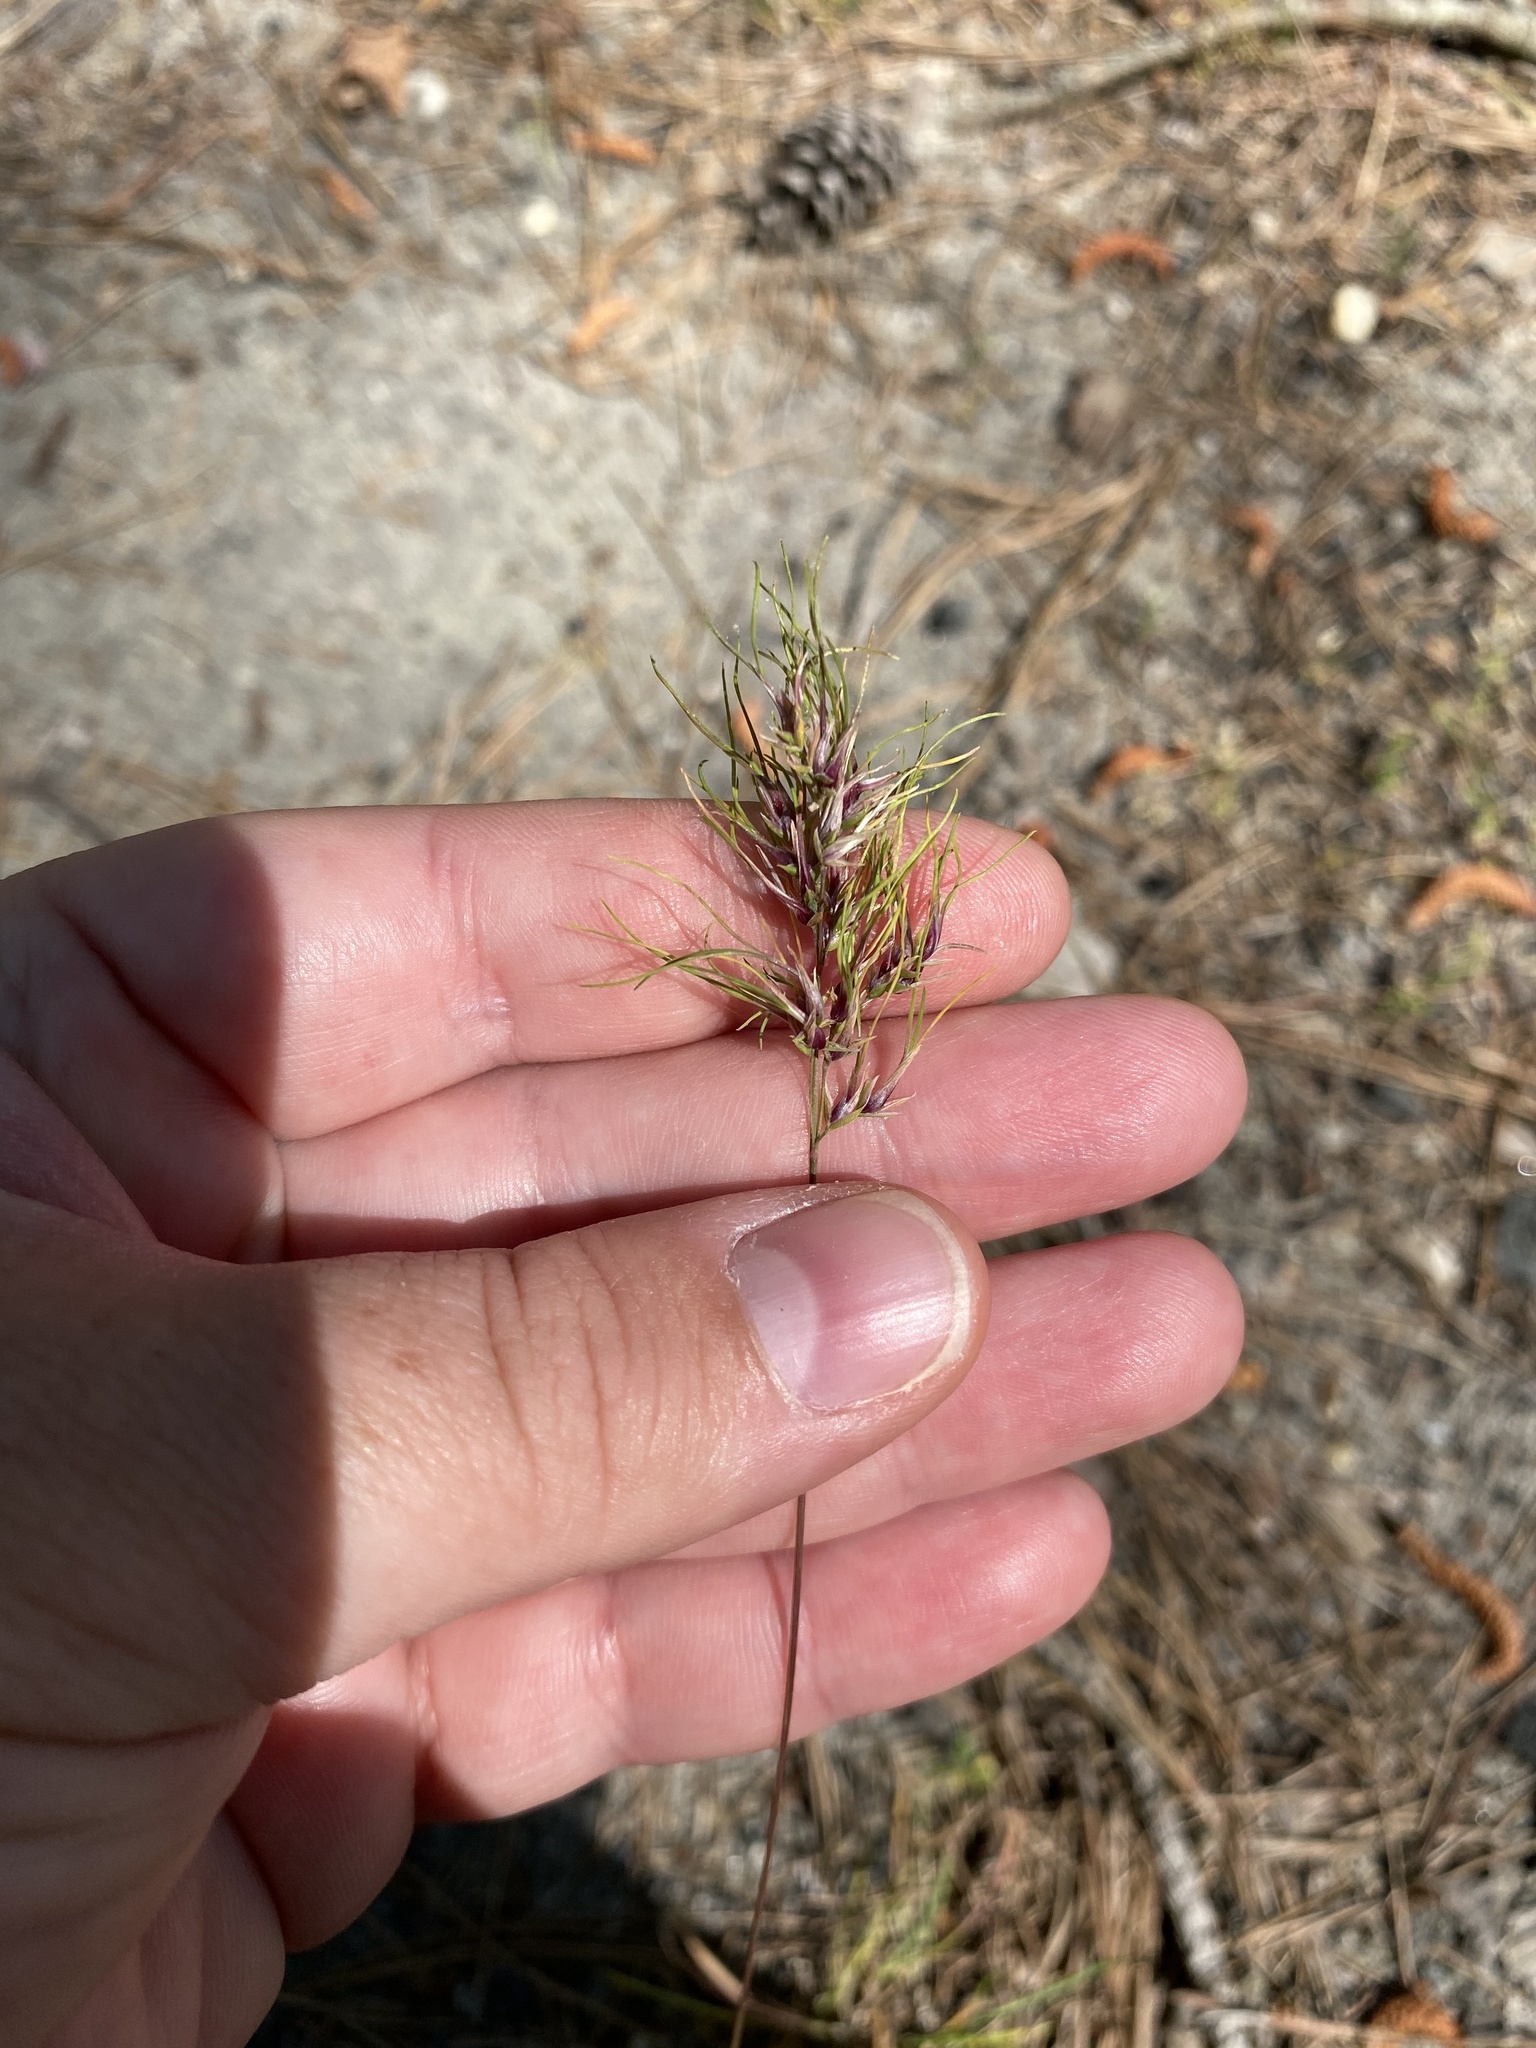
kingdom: Plantae
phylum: Tracheophyta
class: Liliopsida
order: Poales
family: Poaceae
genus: Poa
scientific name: Poa bulbosa
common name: Bulbous bluegrass
